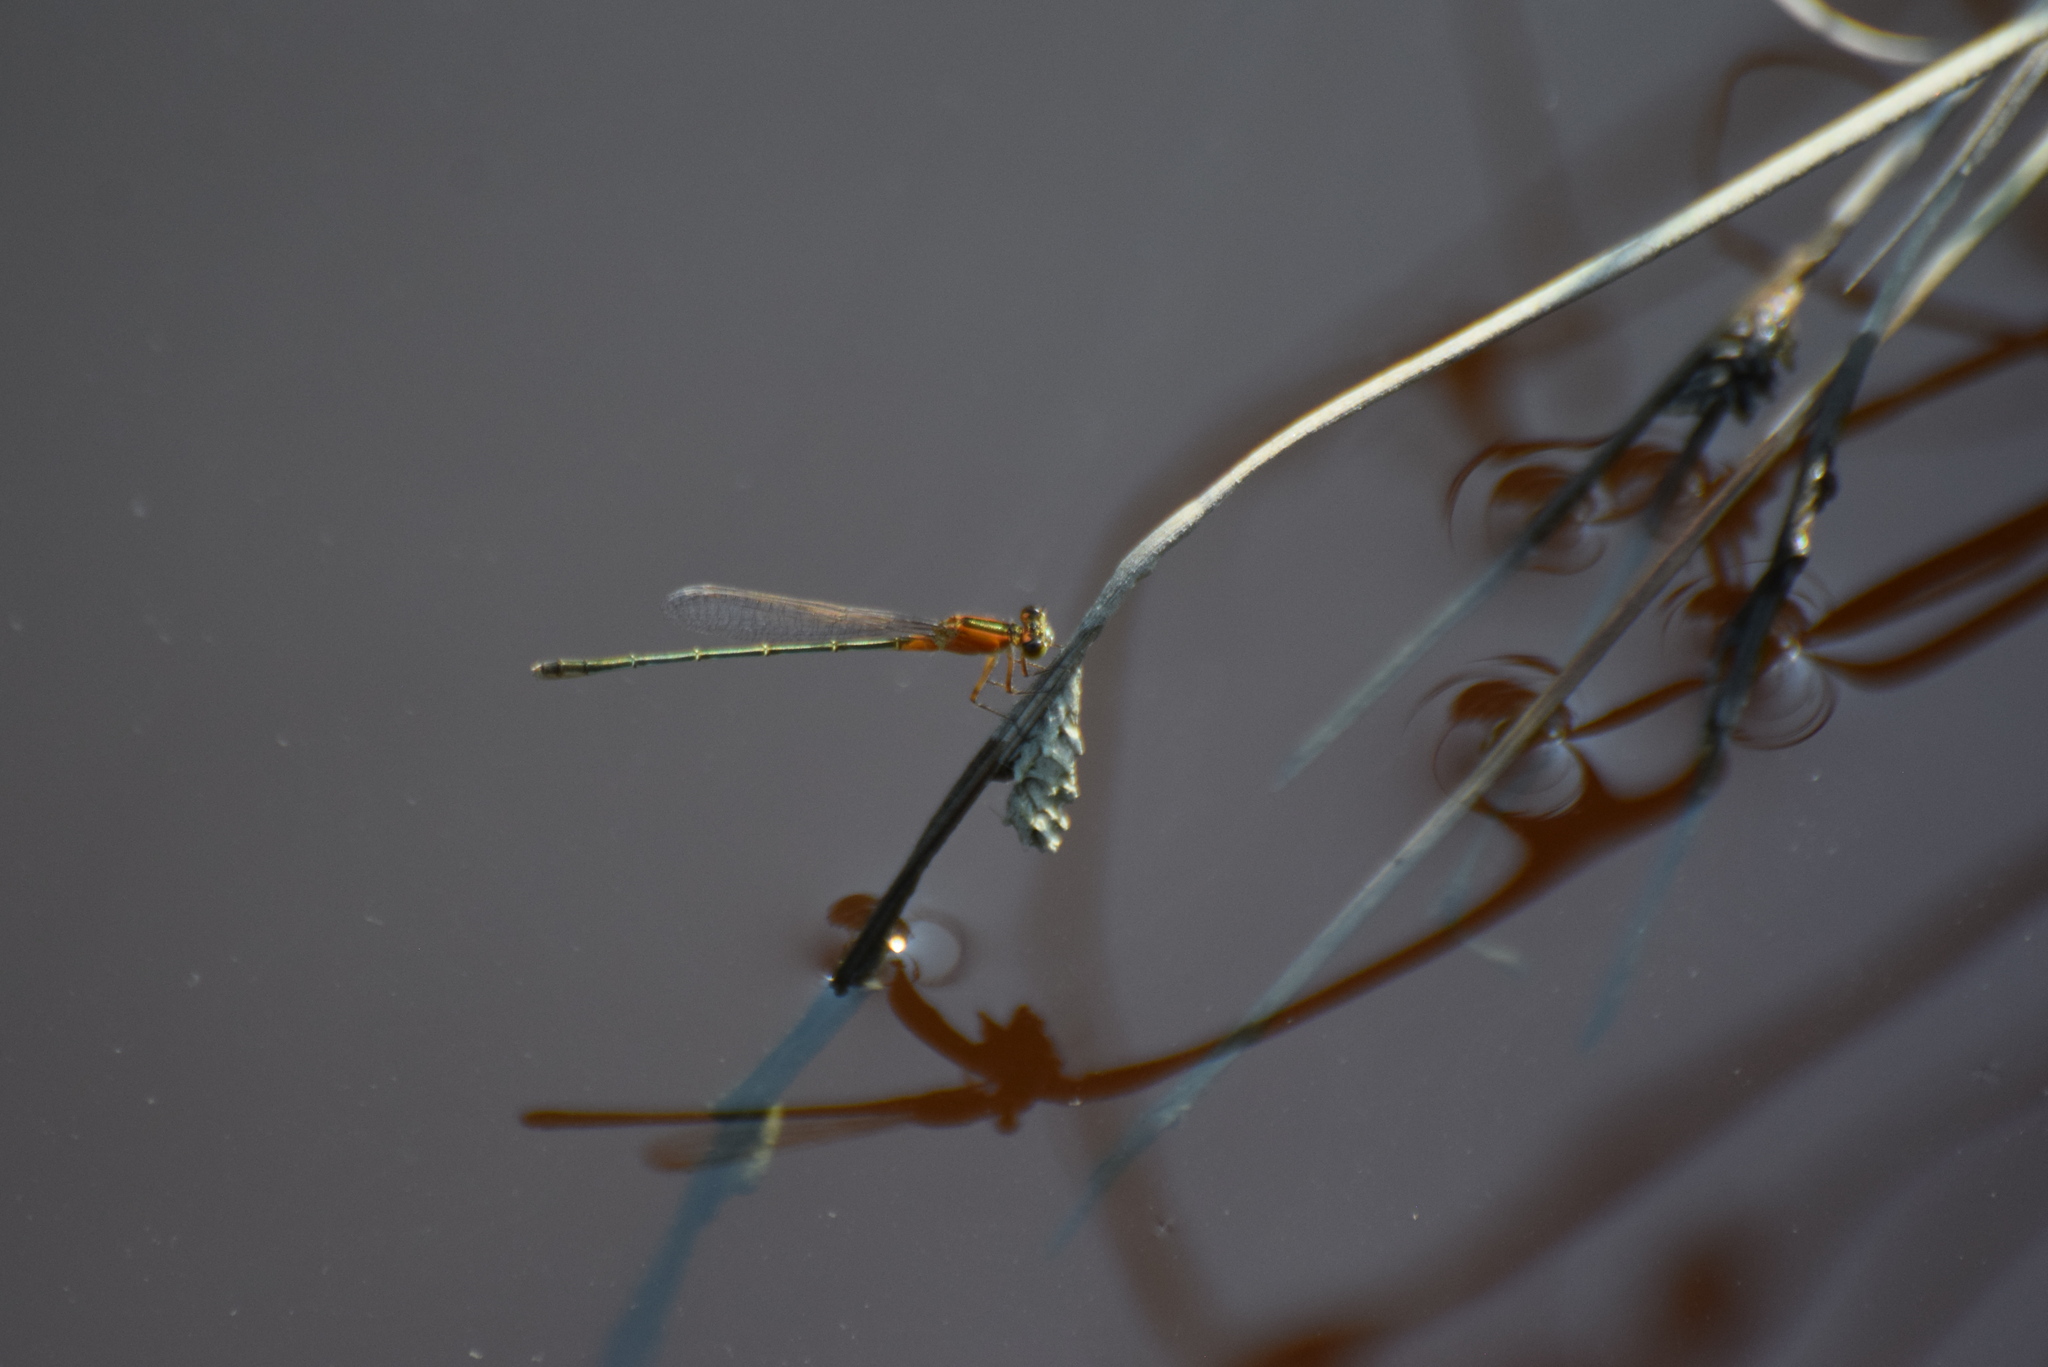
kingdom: Animalia
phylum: Arthropoda
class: Insecta
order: Odonata
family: Coenagrionidae
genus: Ischnura
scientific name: Ischnura ramburii
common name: Rambur's forktail
